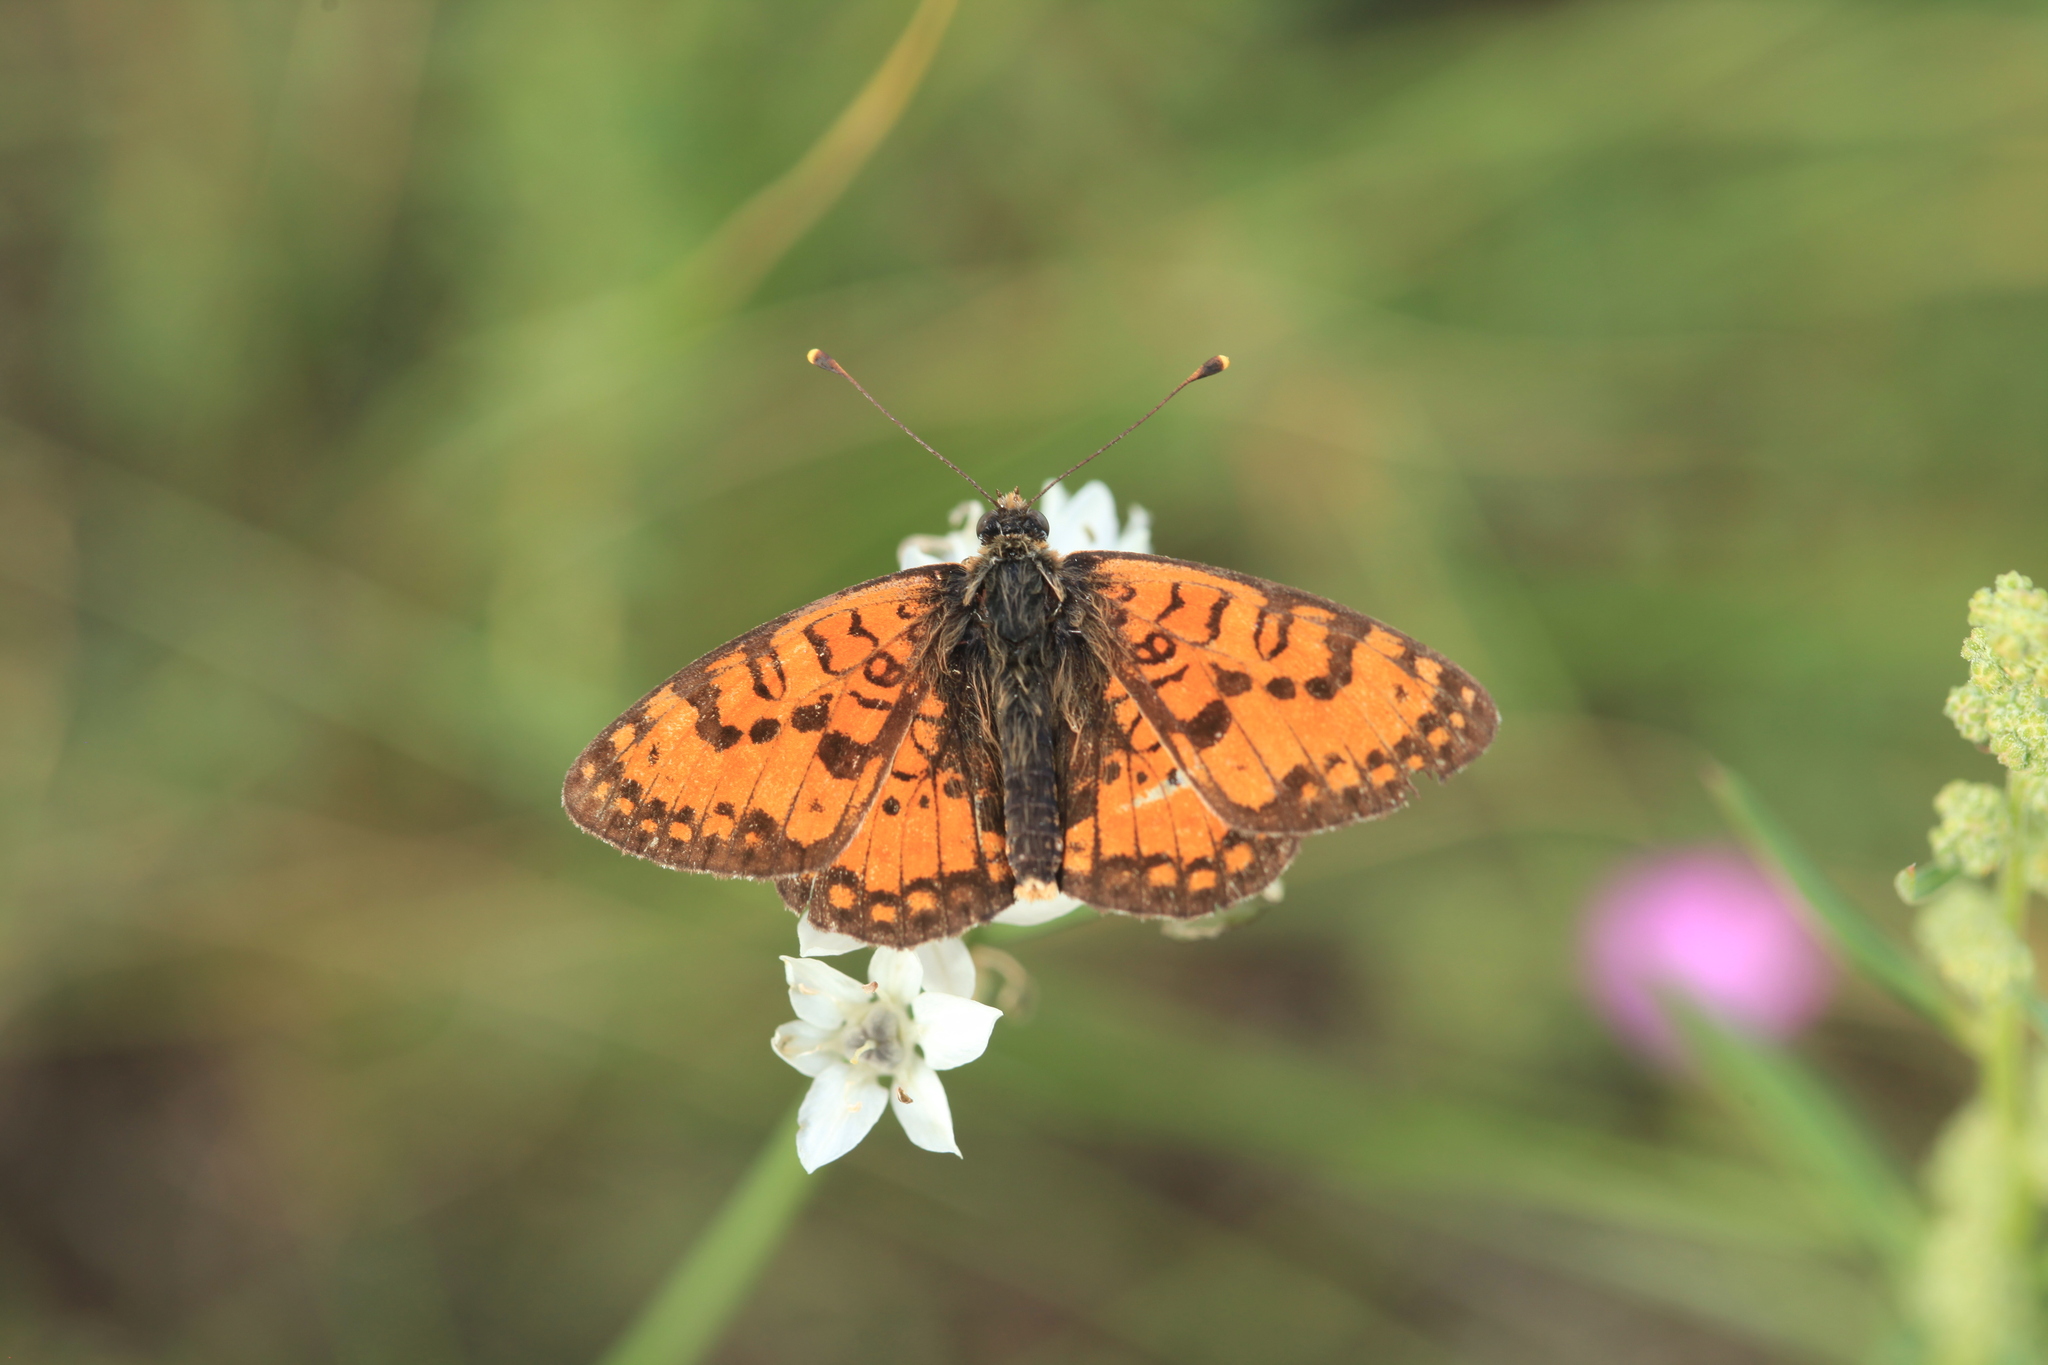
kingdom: Animalia
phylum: Arthropoda
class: Insecta
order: Lepidoptera
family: Nymphalidae
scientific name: Nymphalidae
